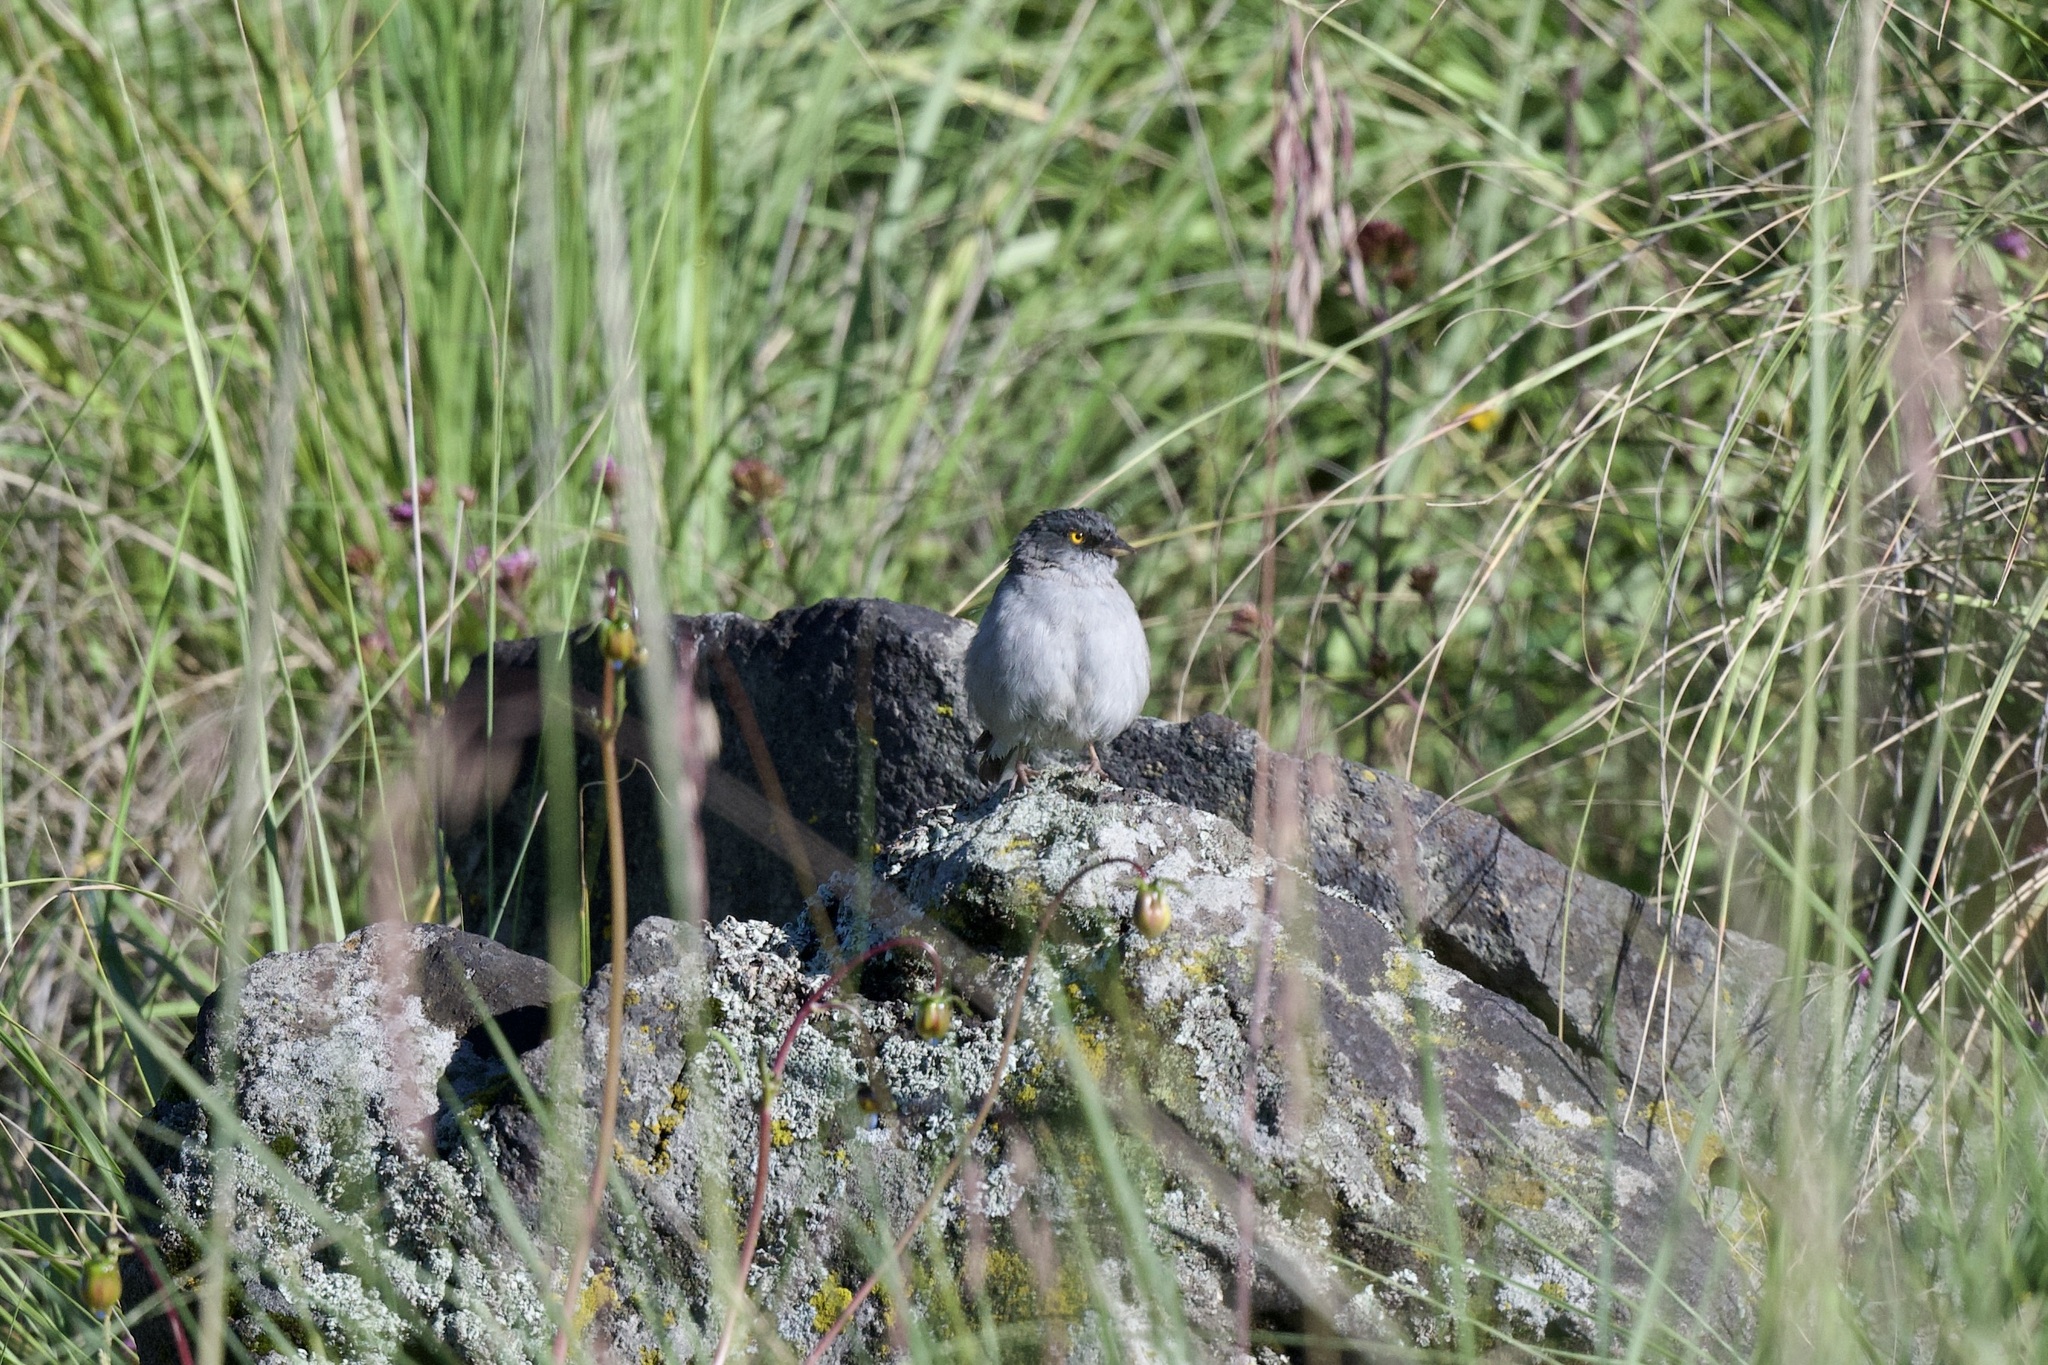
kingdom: Animalia
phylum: Chordata
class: Aves
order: Passeriformes
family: Passerellidae
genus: Junco
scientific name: Junco phaeonotus
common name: Yellow-eyed junco
